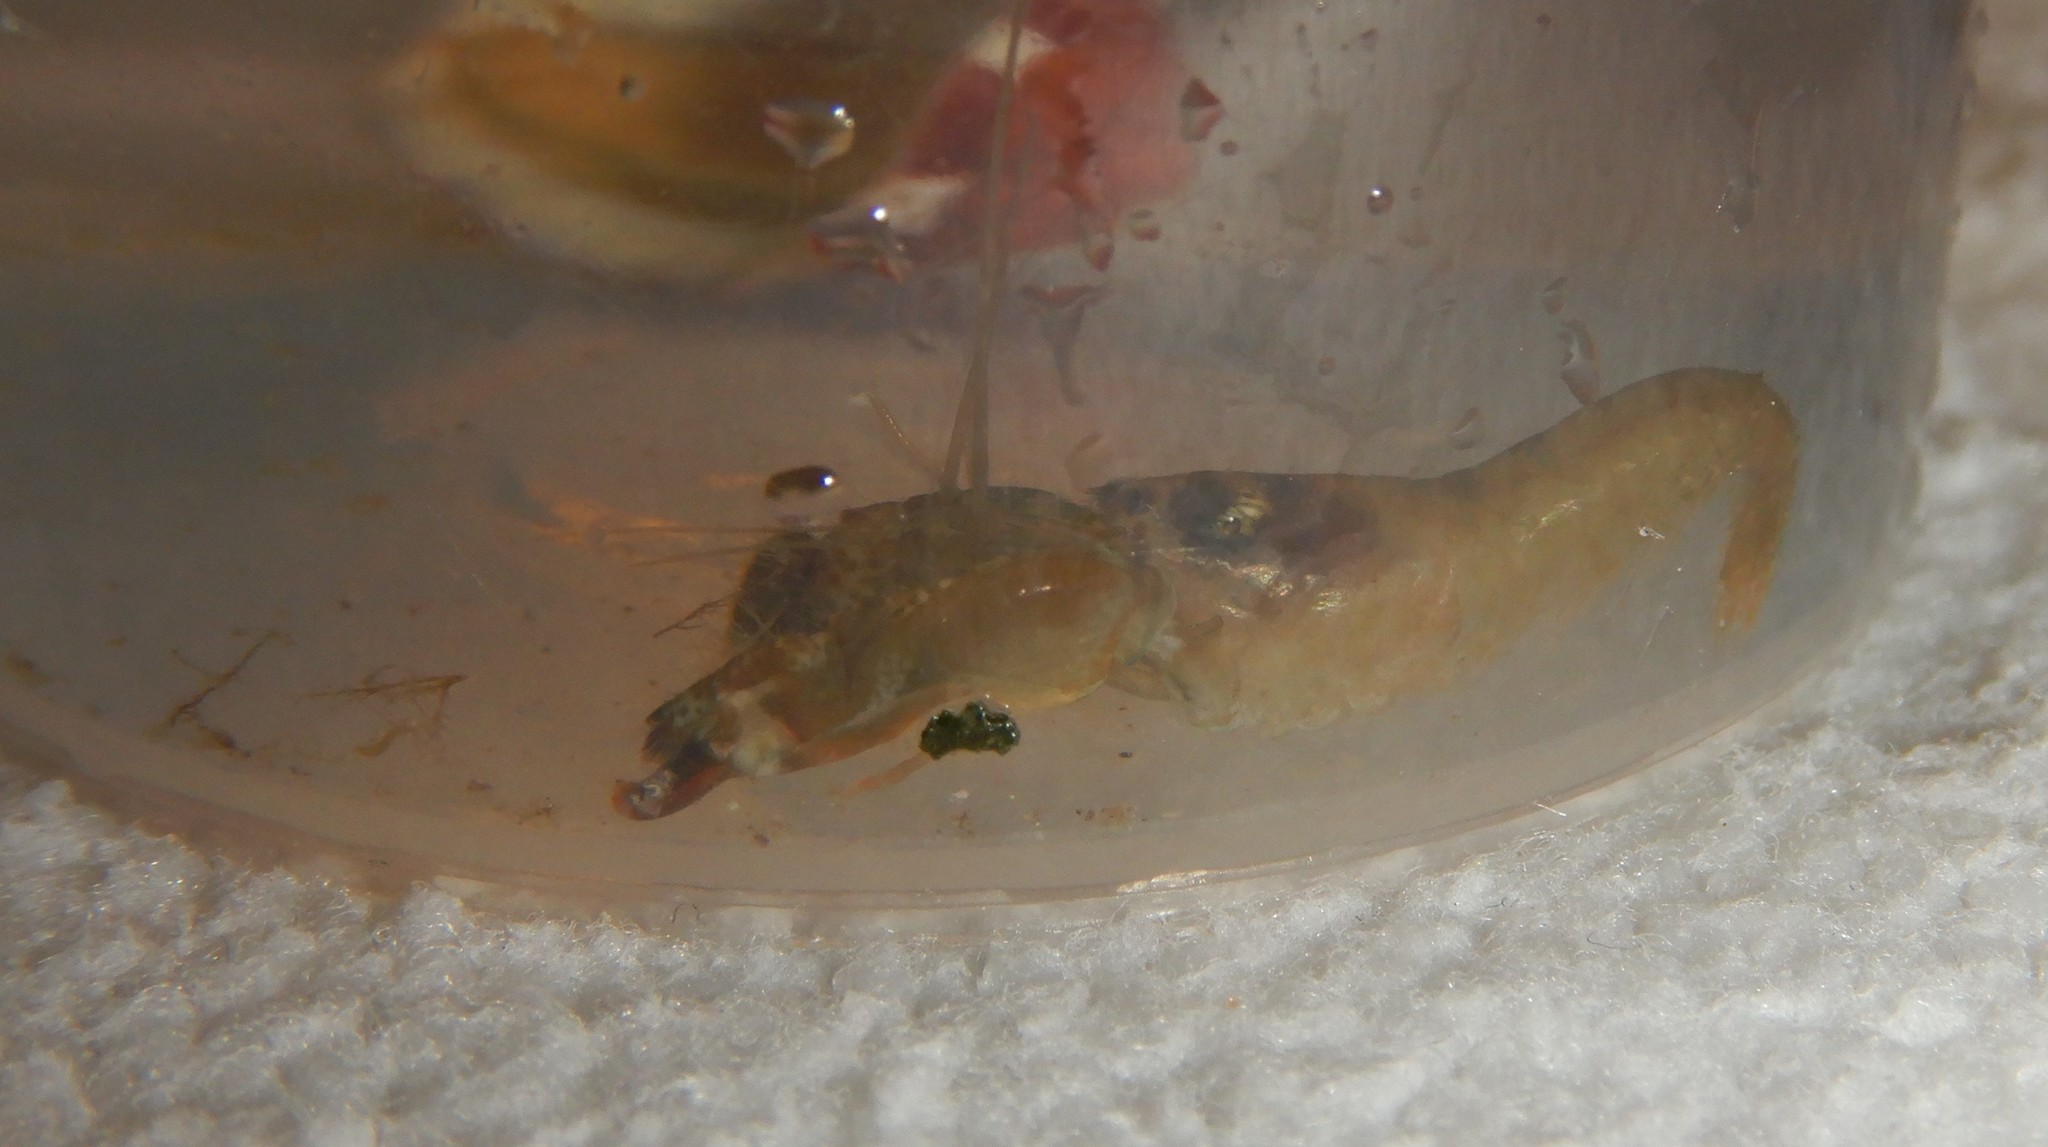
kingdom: Animalia
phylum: Arthropoda
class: Malacostraca
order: Decapoda
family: Alpheidae
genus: Alpheus
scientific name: Alpheus dentipes
